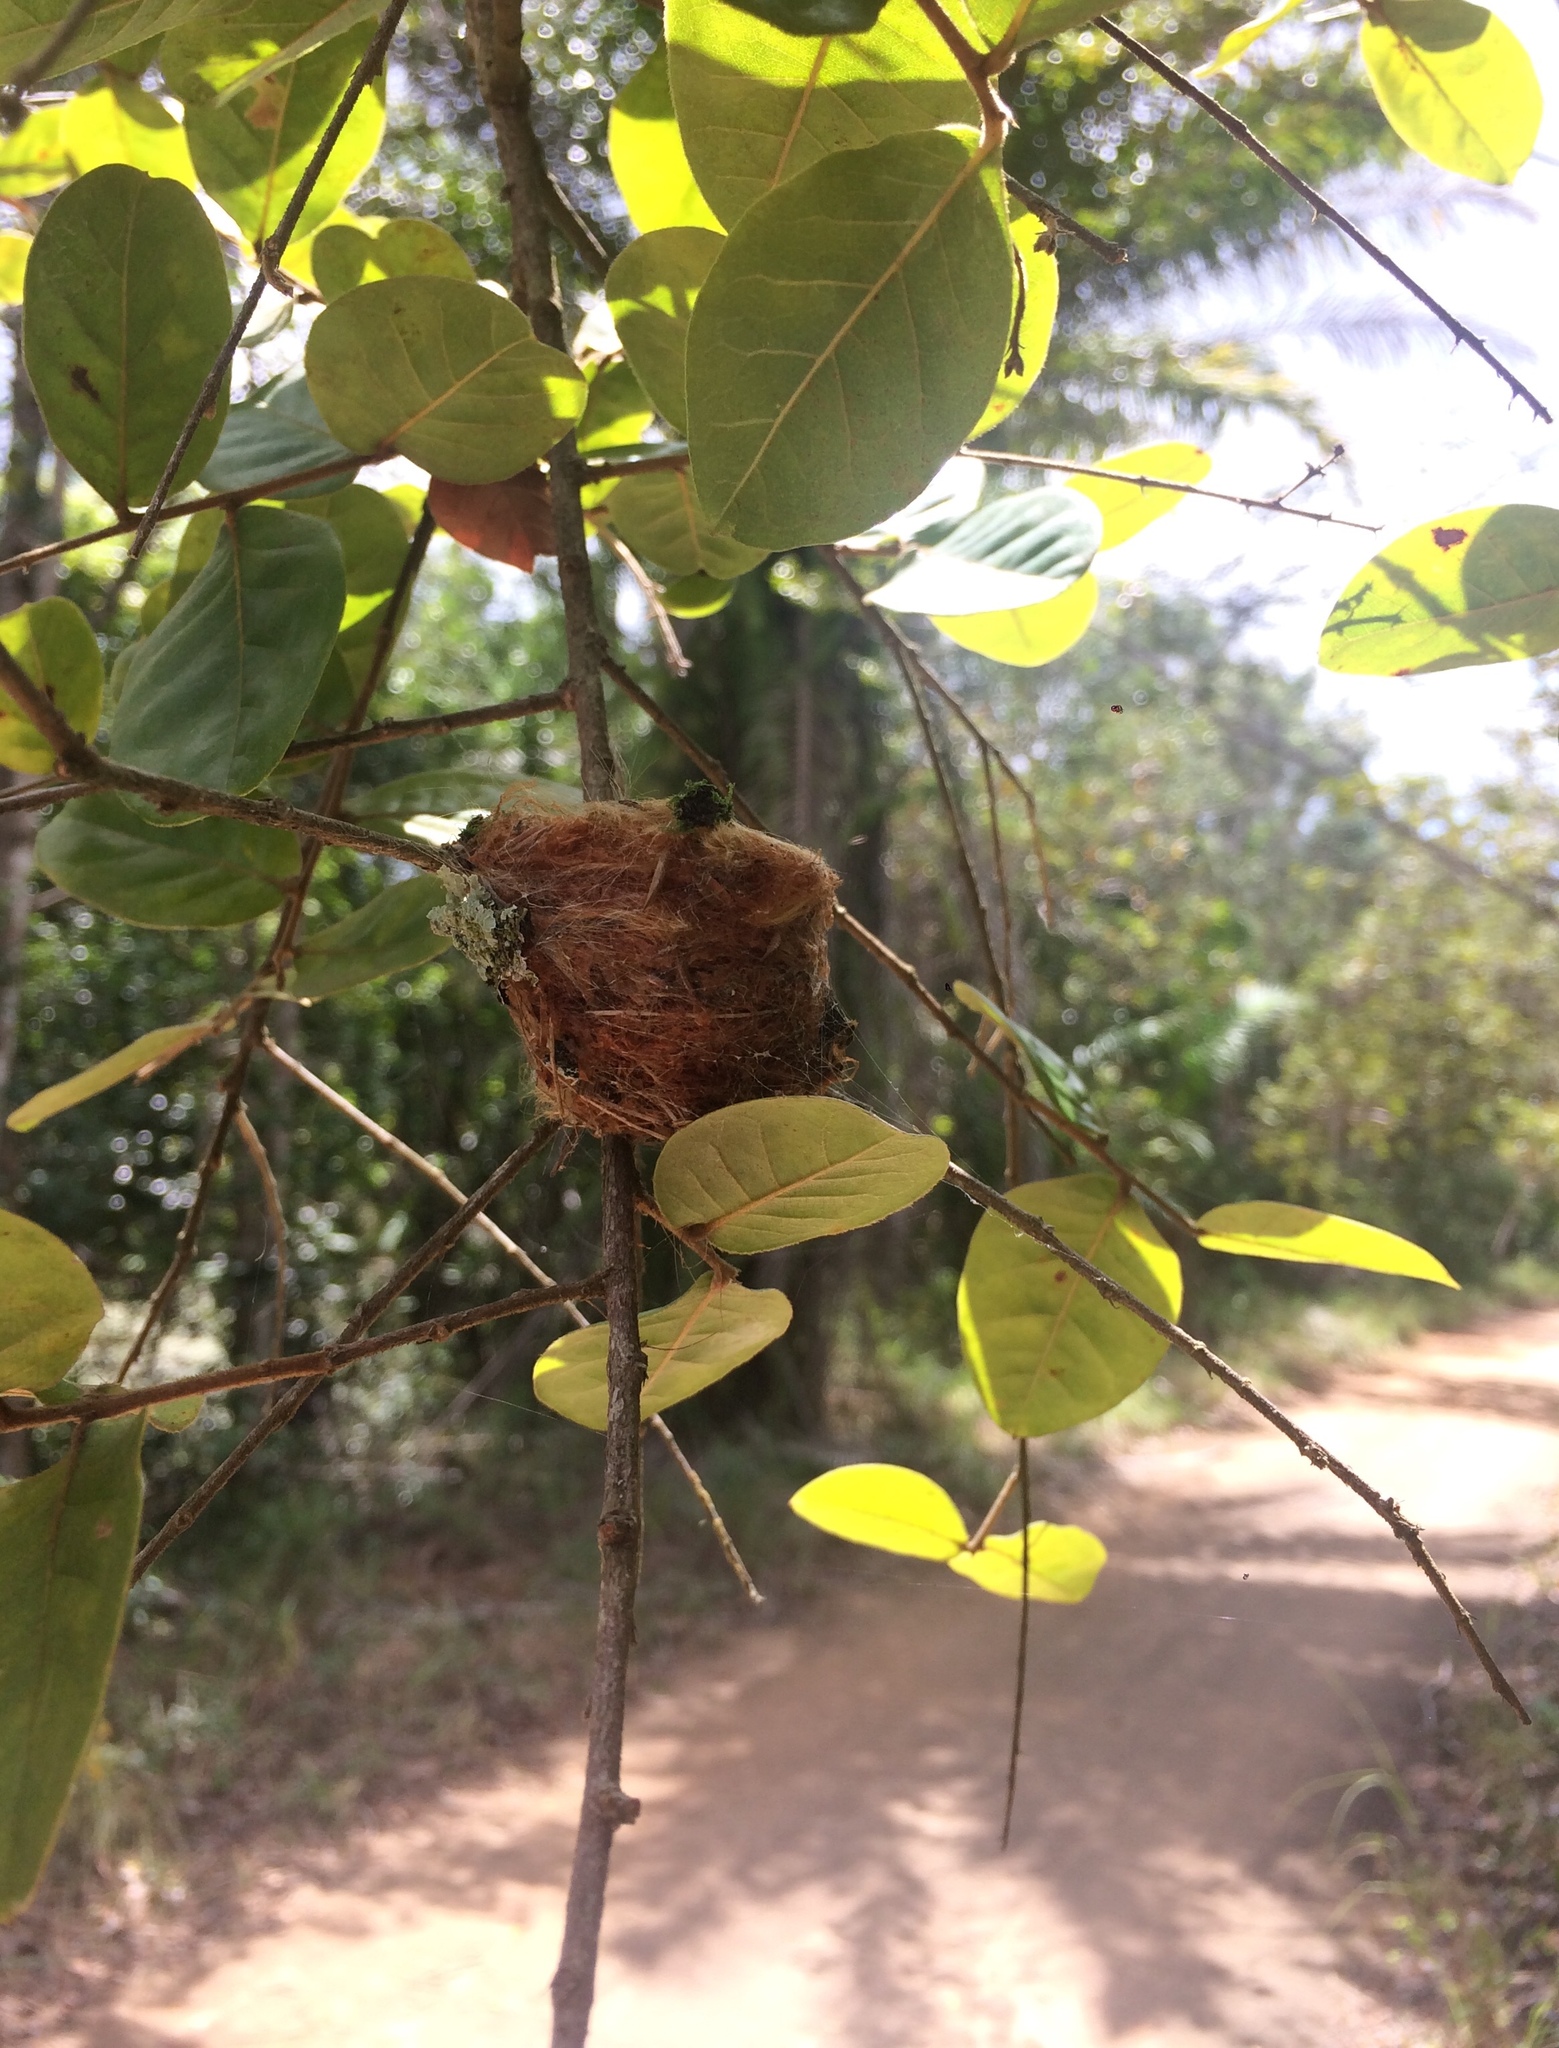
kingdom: Animalia
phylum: Chordata
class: Aves
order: Apodiformes
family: Trochilidae
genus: Chlorestes
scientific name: Chlorestes notata
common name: Blue-chinned sapphire
